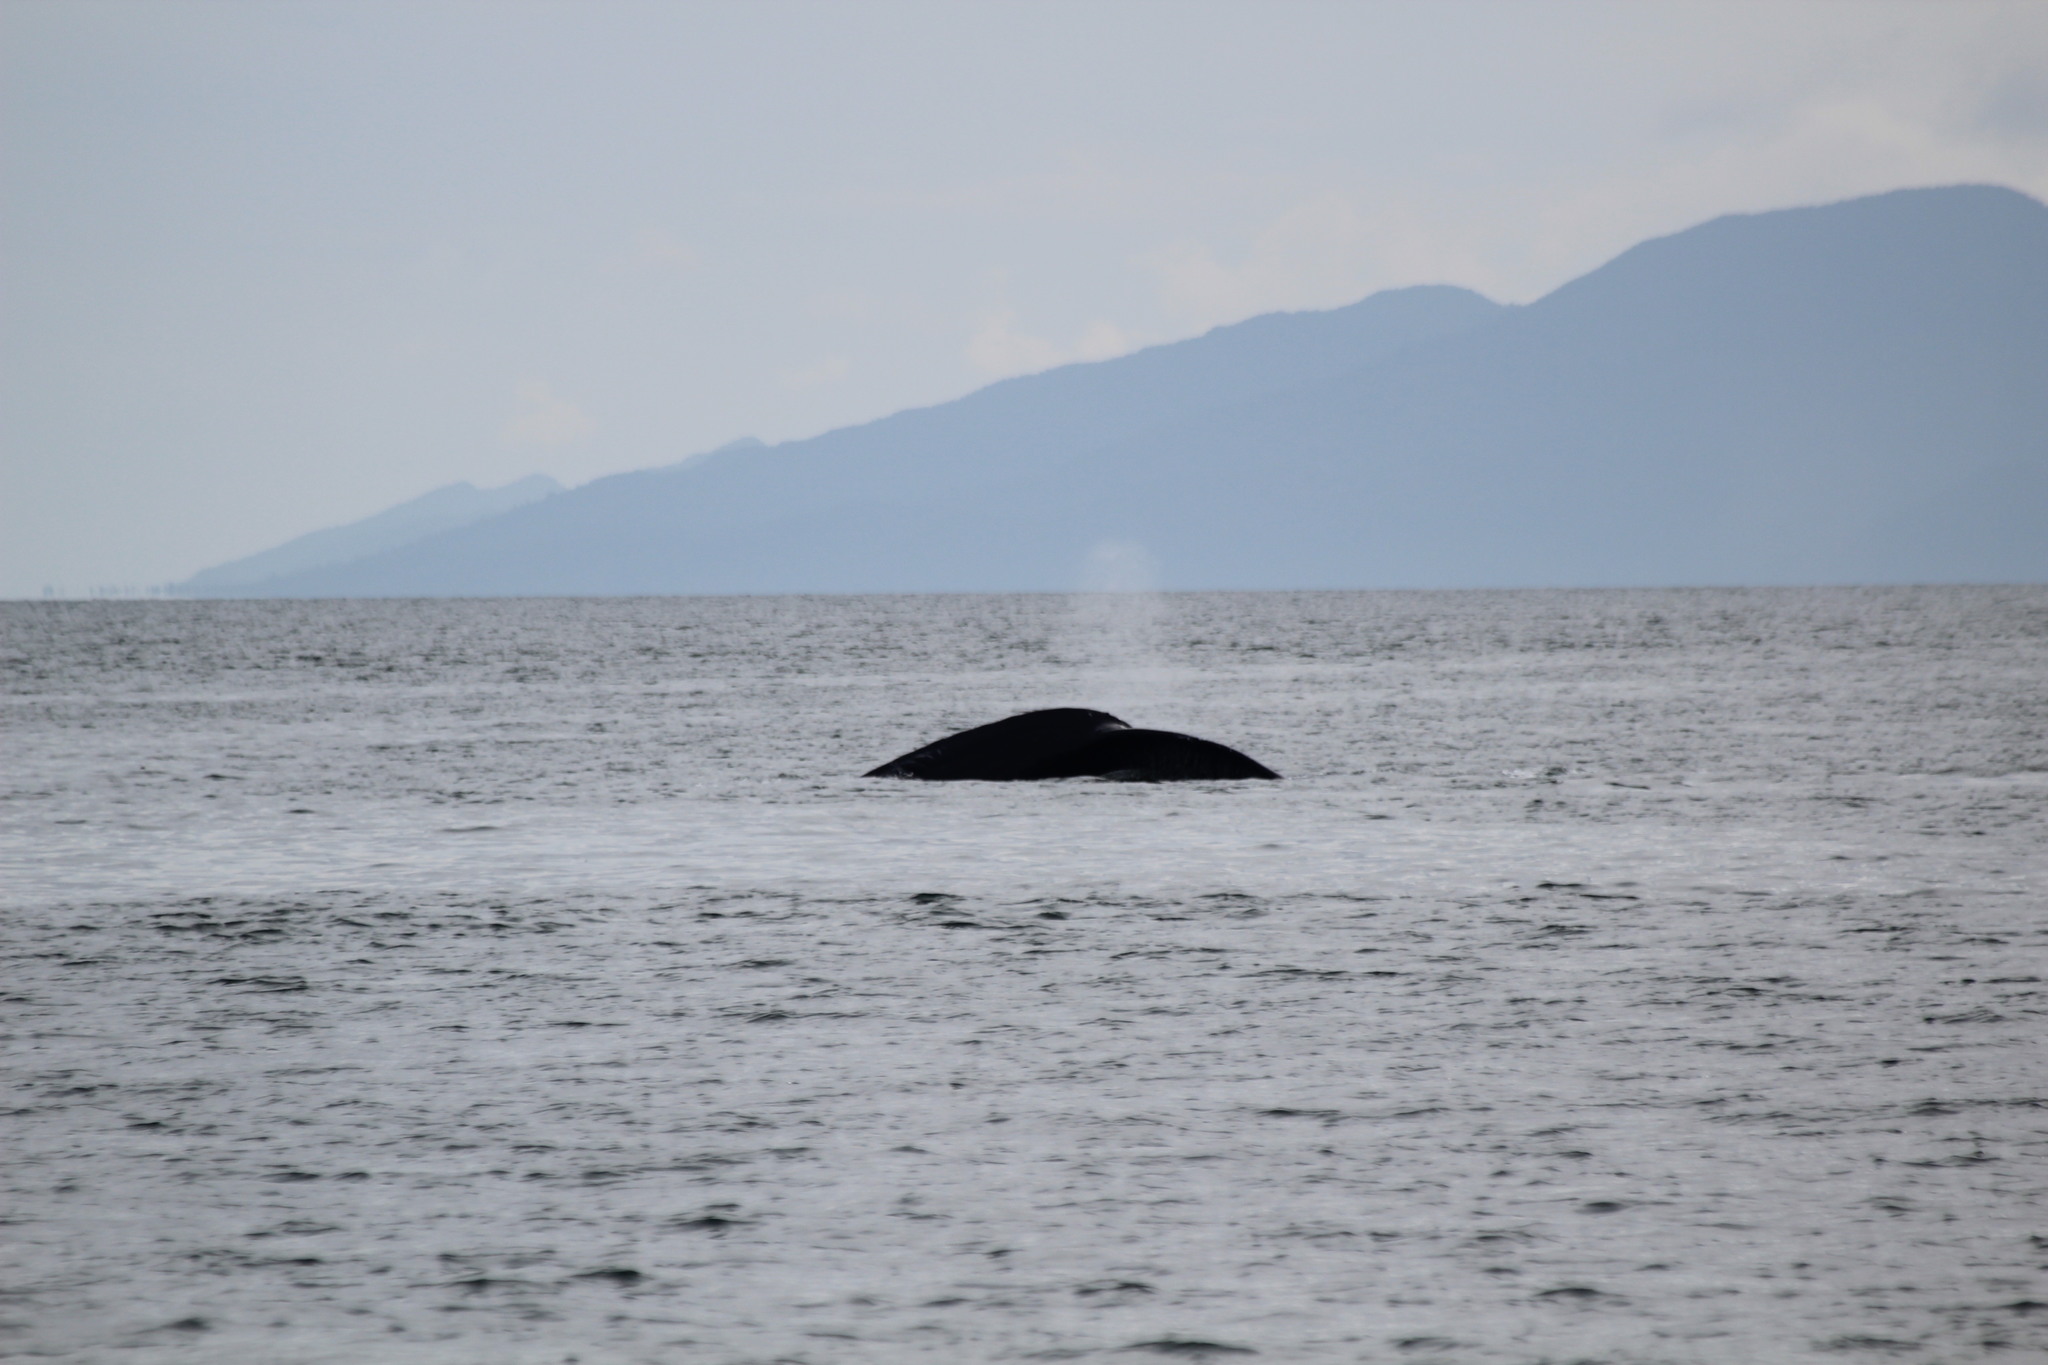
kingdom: Animalia
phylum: Chordata
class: Mammalia
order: Cetacea
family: Balaenopteridae
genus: Megaptera
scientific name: Megaptera novaeangliae
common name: Humpback whale
